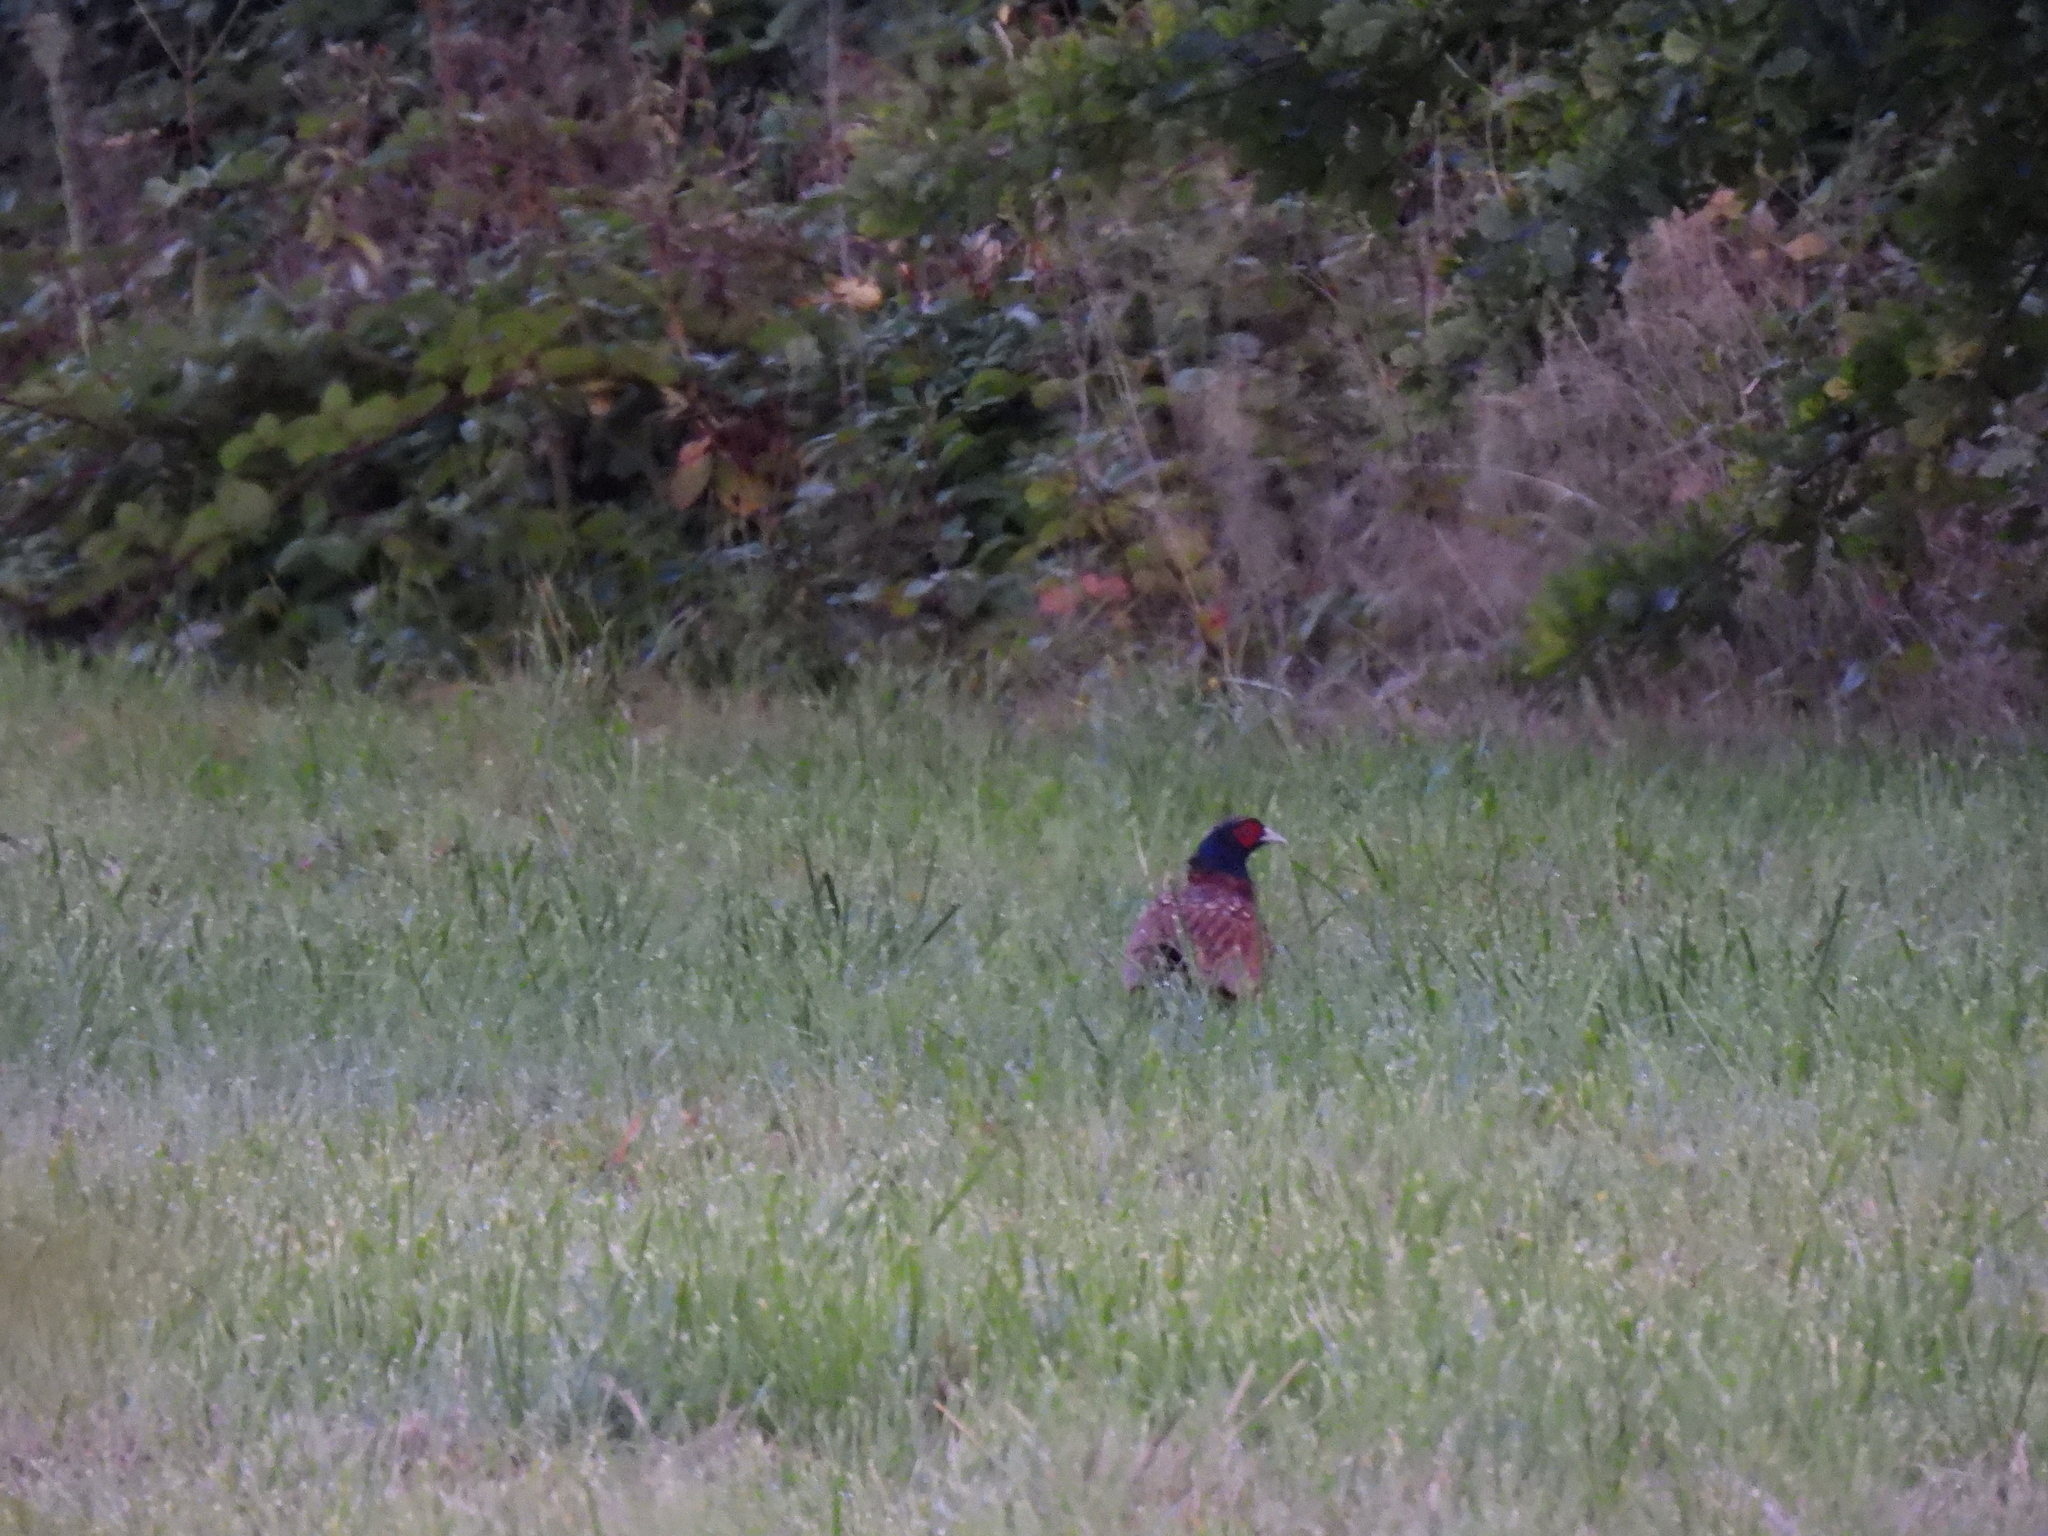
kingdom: Animalia
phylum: Chordata
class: Aves
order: Galliformes
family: Phasianidae
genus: Phasianus
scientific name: Phasianus colchicus
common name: Common pheasant
